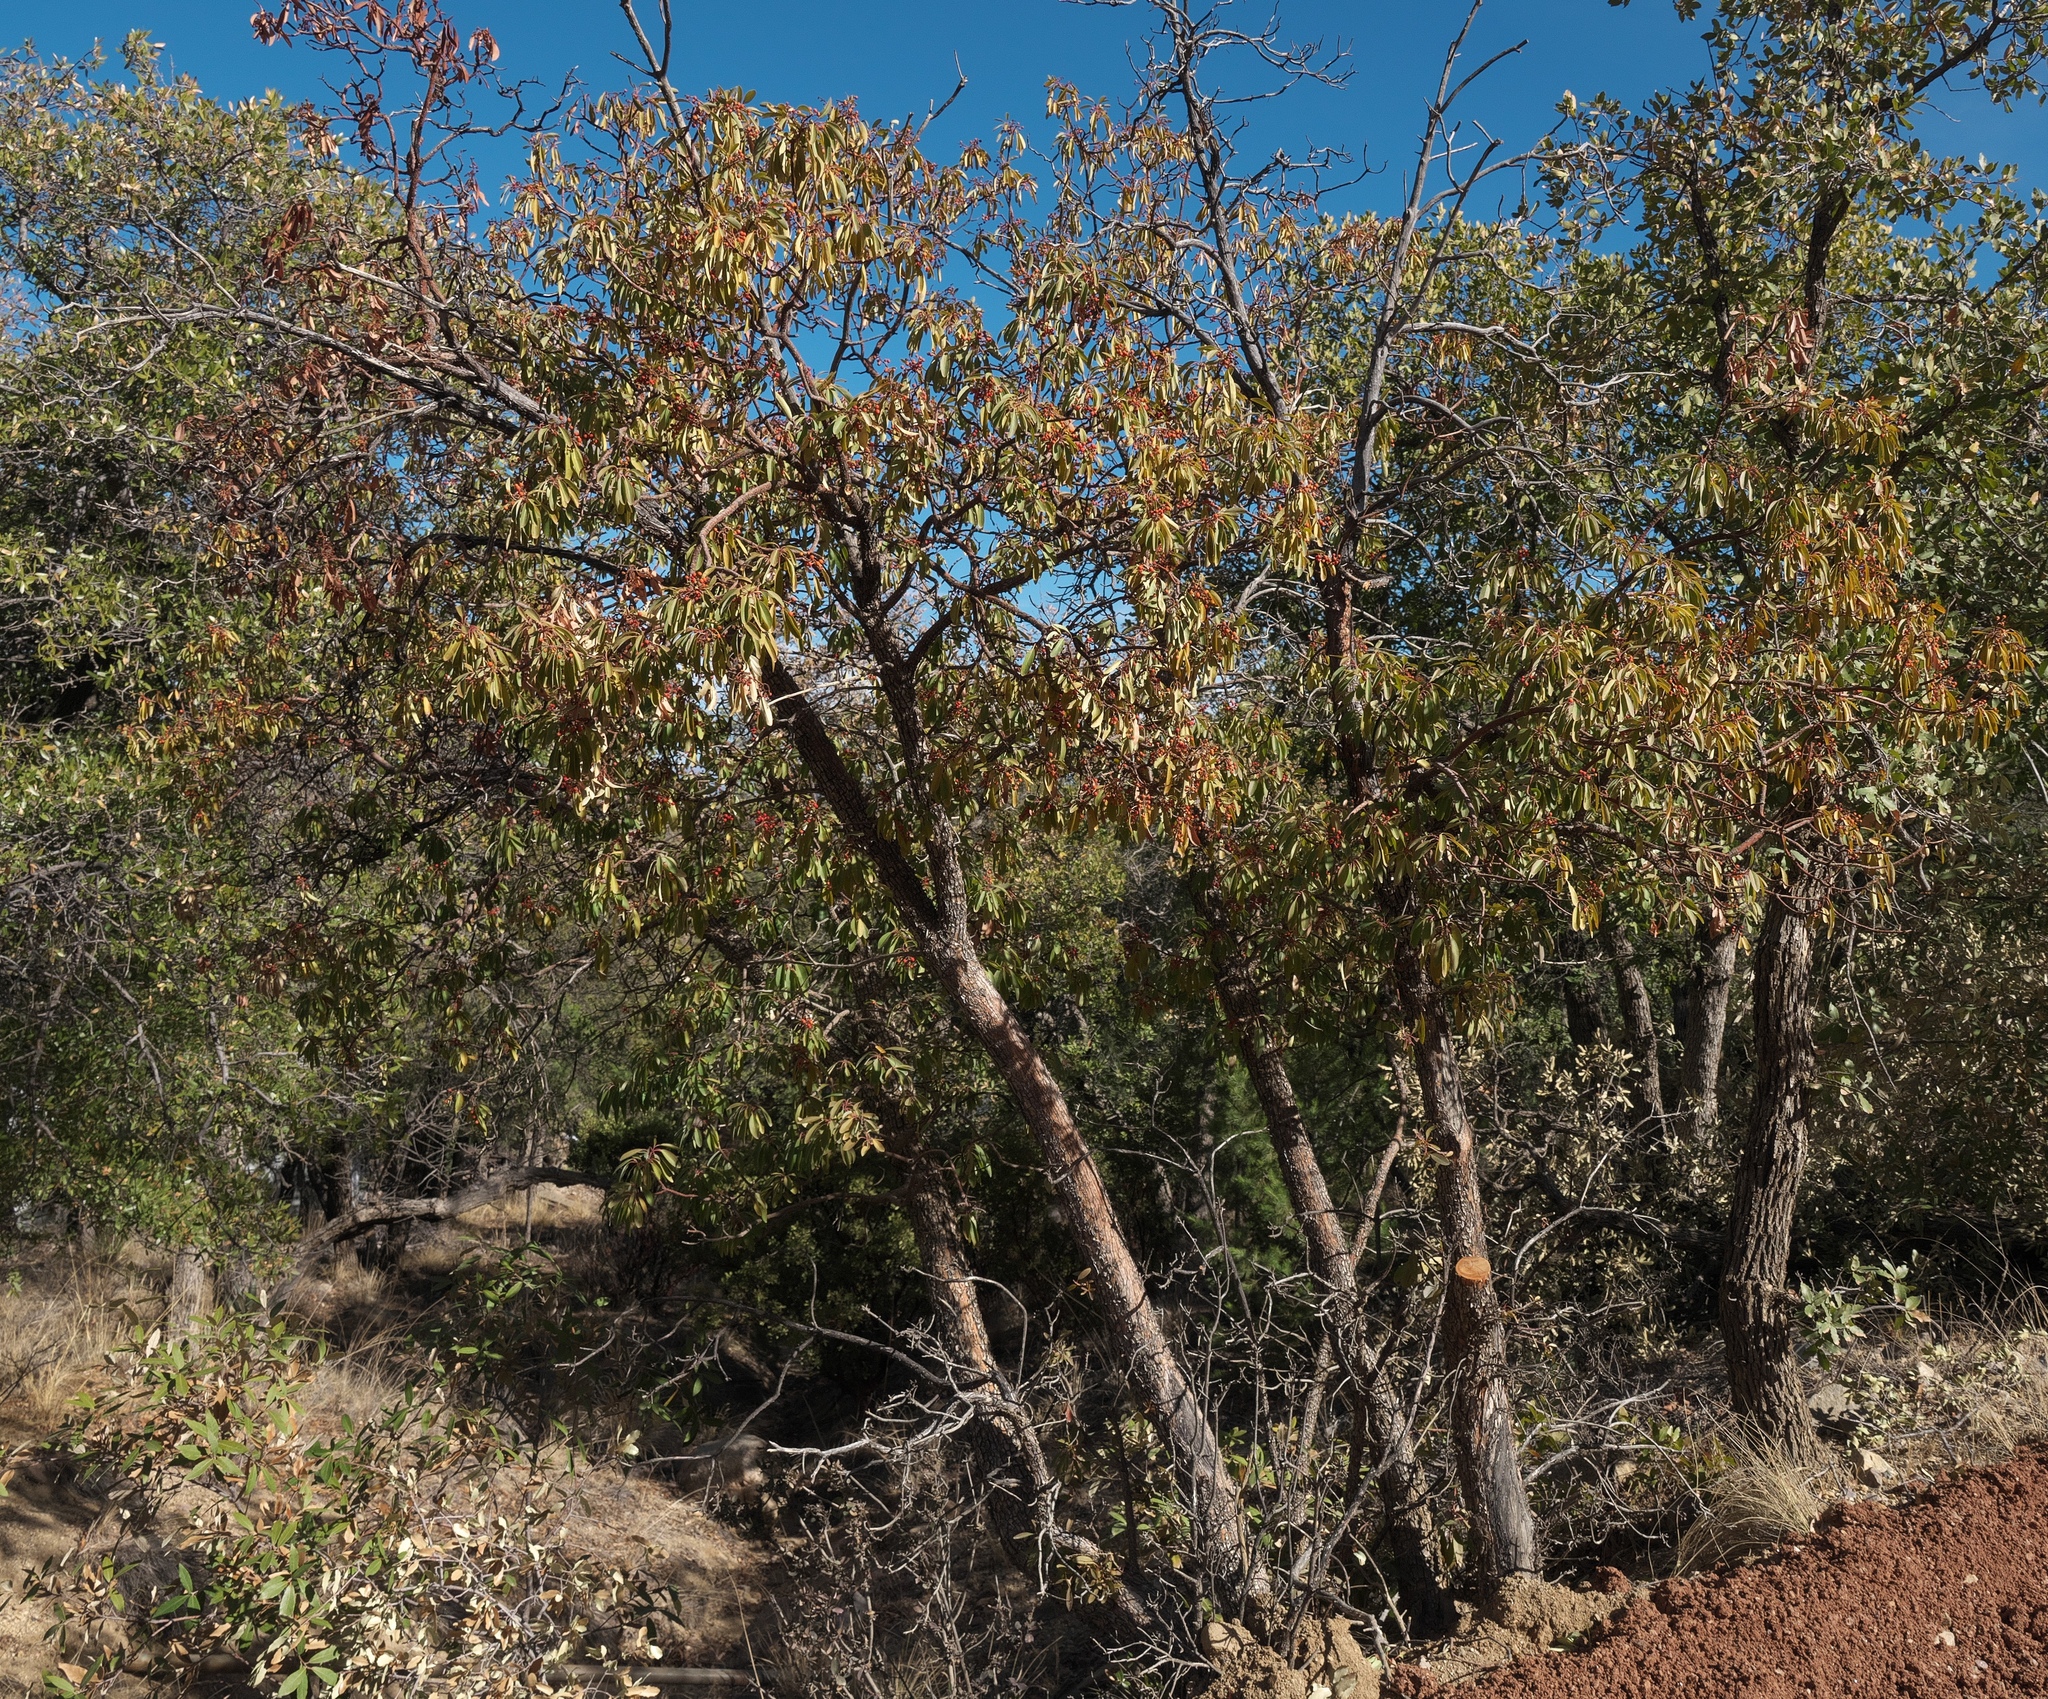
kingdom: Plantae
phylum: Tracheophyta
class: Magnoliopsida
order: Ericales
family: Ericaceae
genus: Arbutus
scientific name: Arbutus arizonica
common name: Arizona madrone
